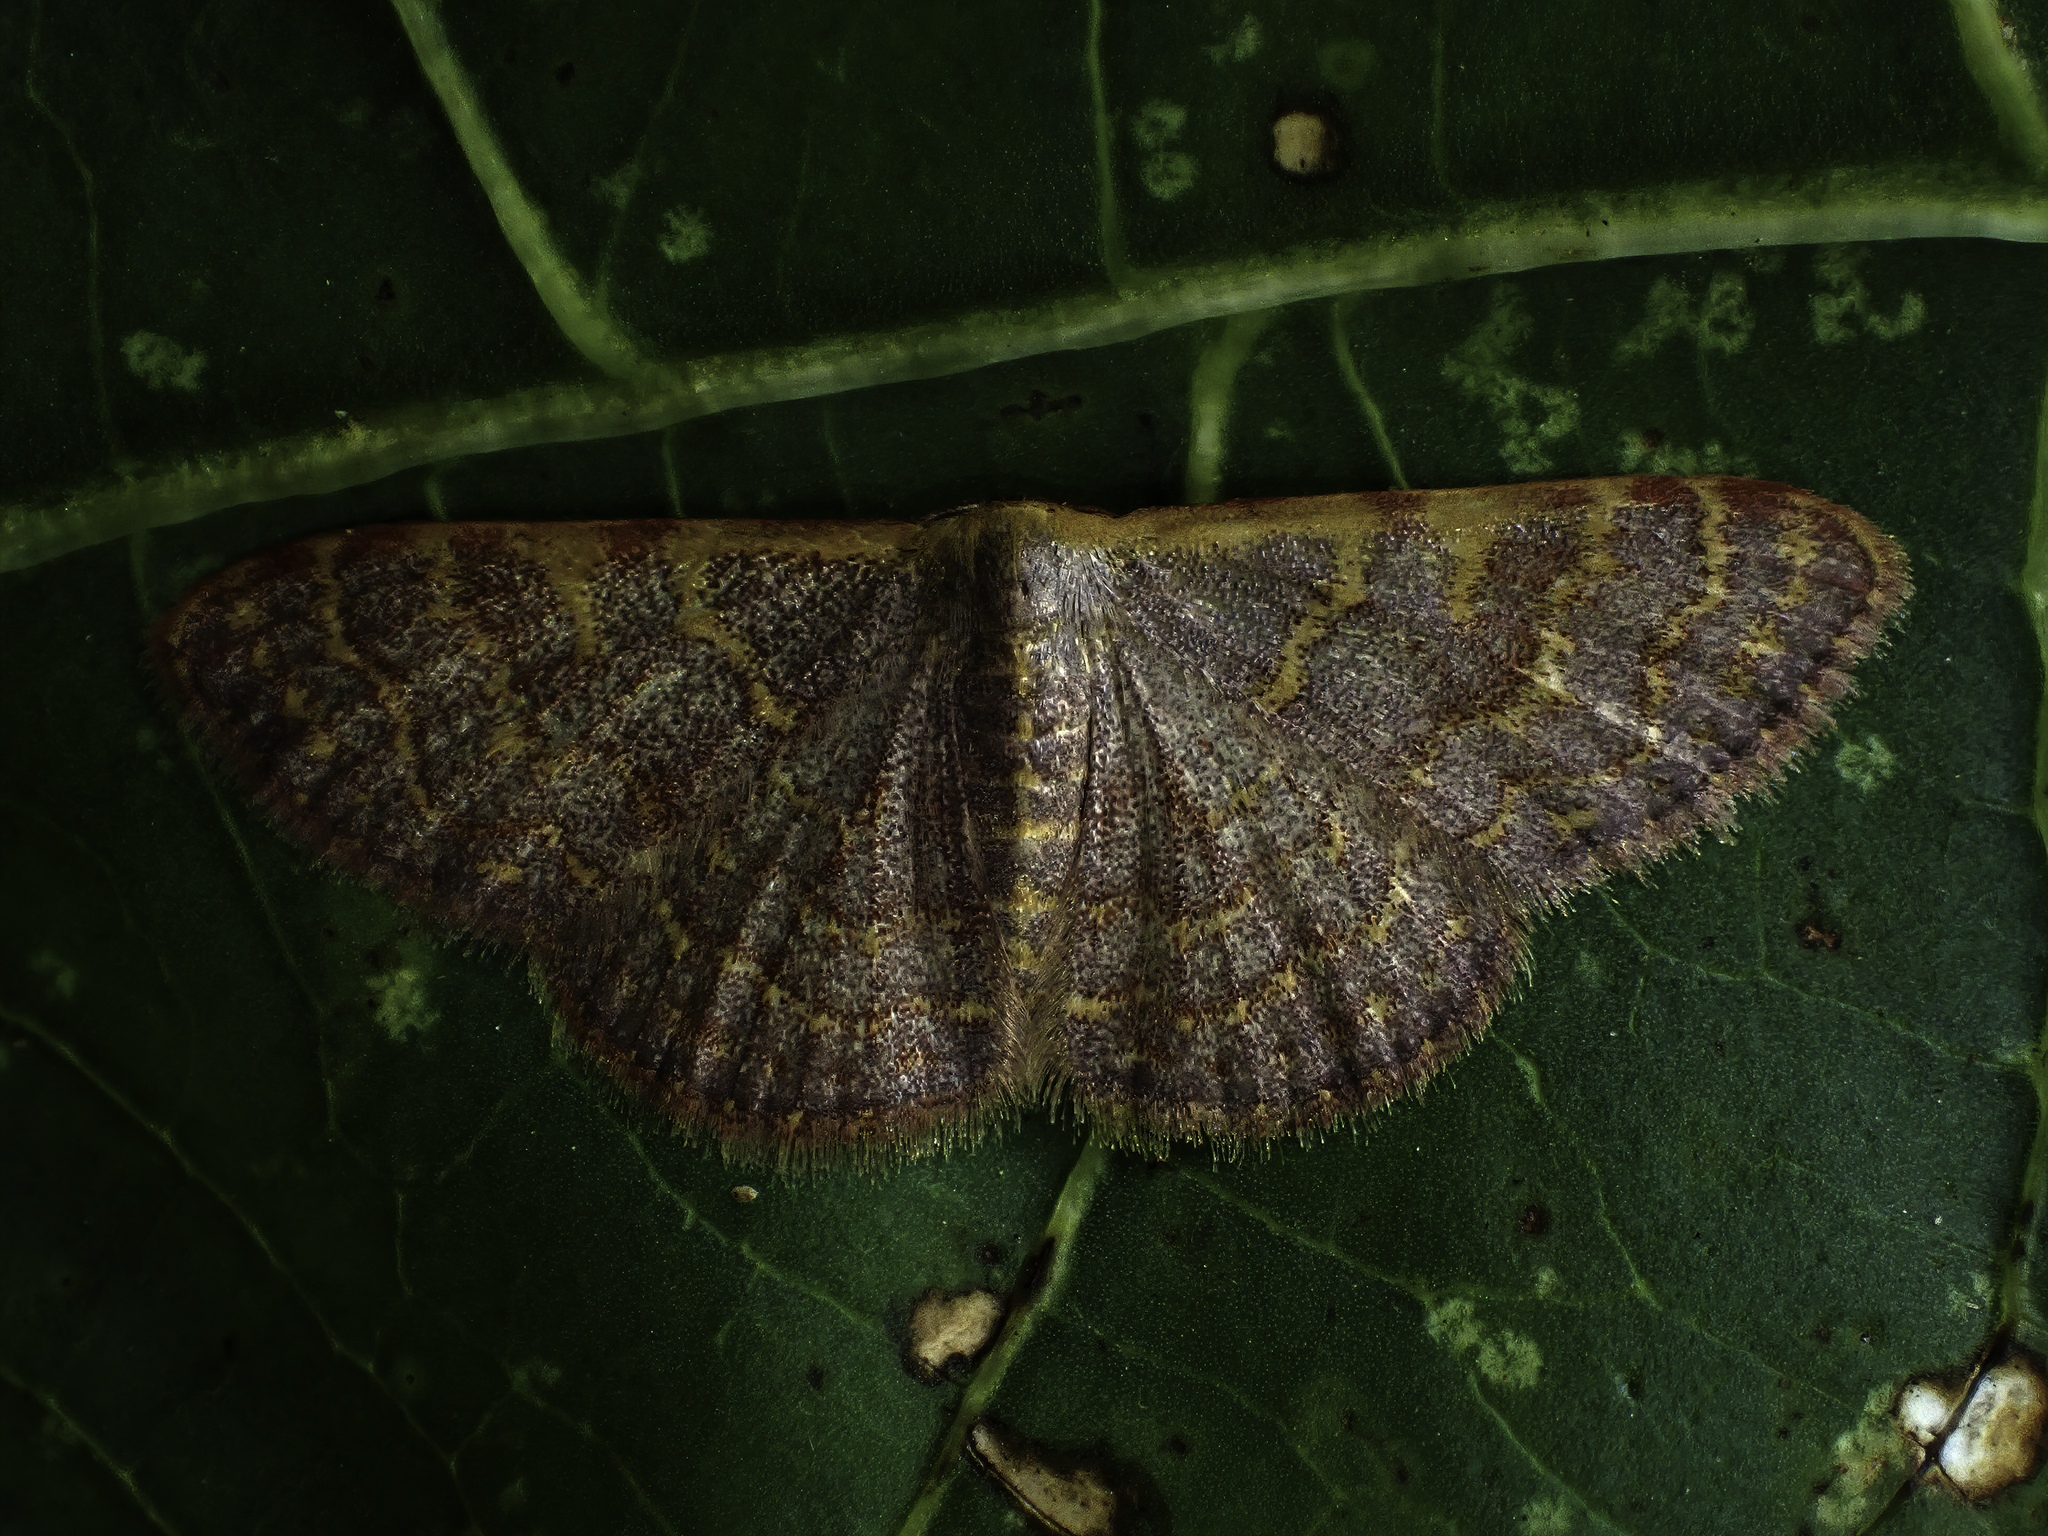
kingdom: Animalia
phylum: Arthropoda
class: Insecta
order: Lepidoptera
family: Geometridae
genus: Leptostales
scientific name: Leptostales pannaria
